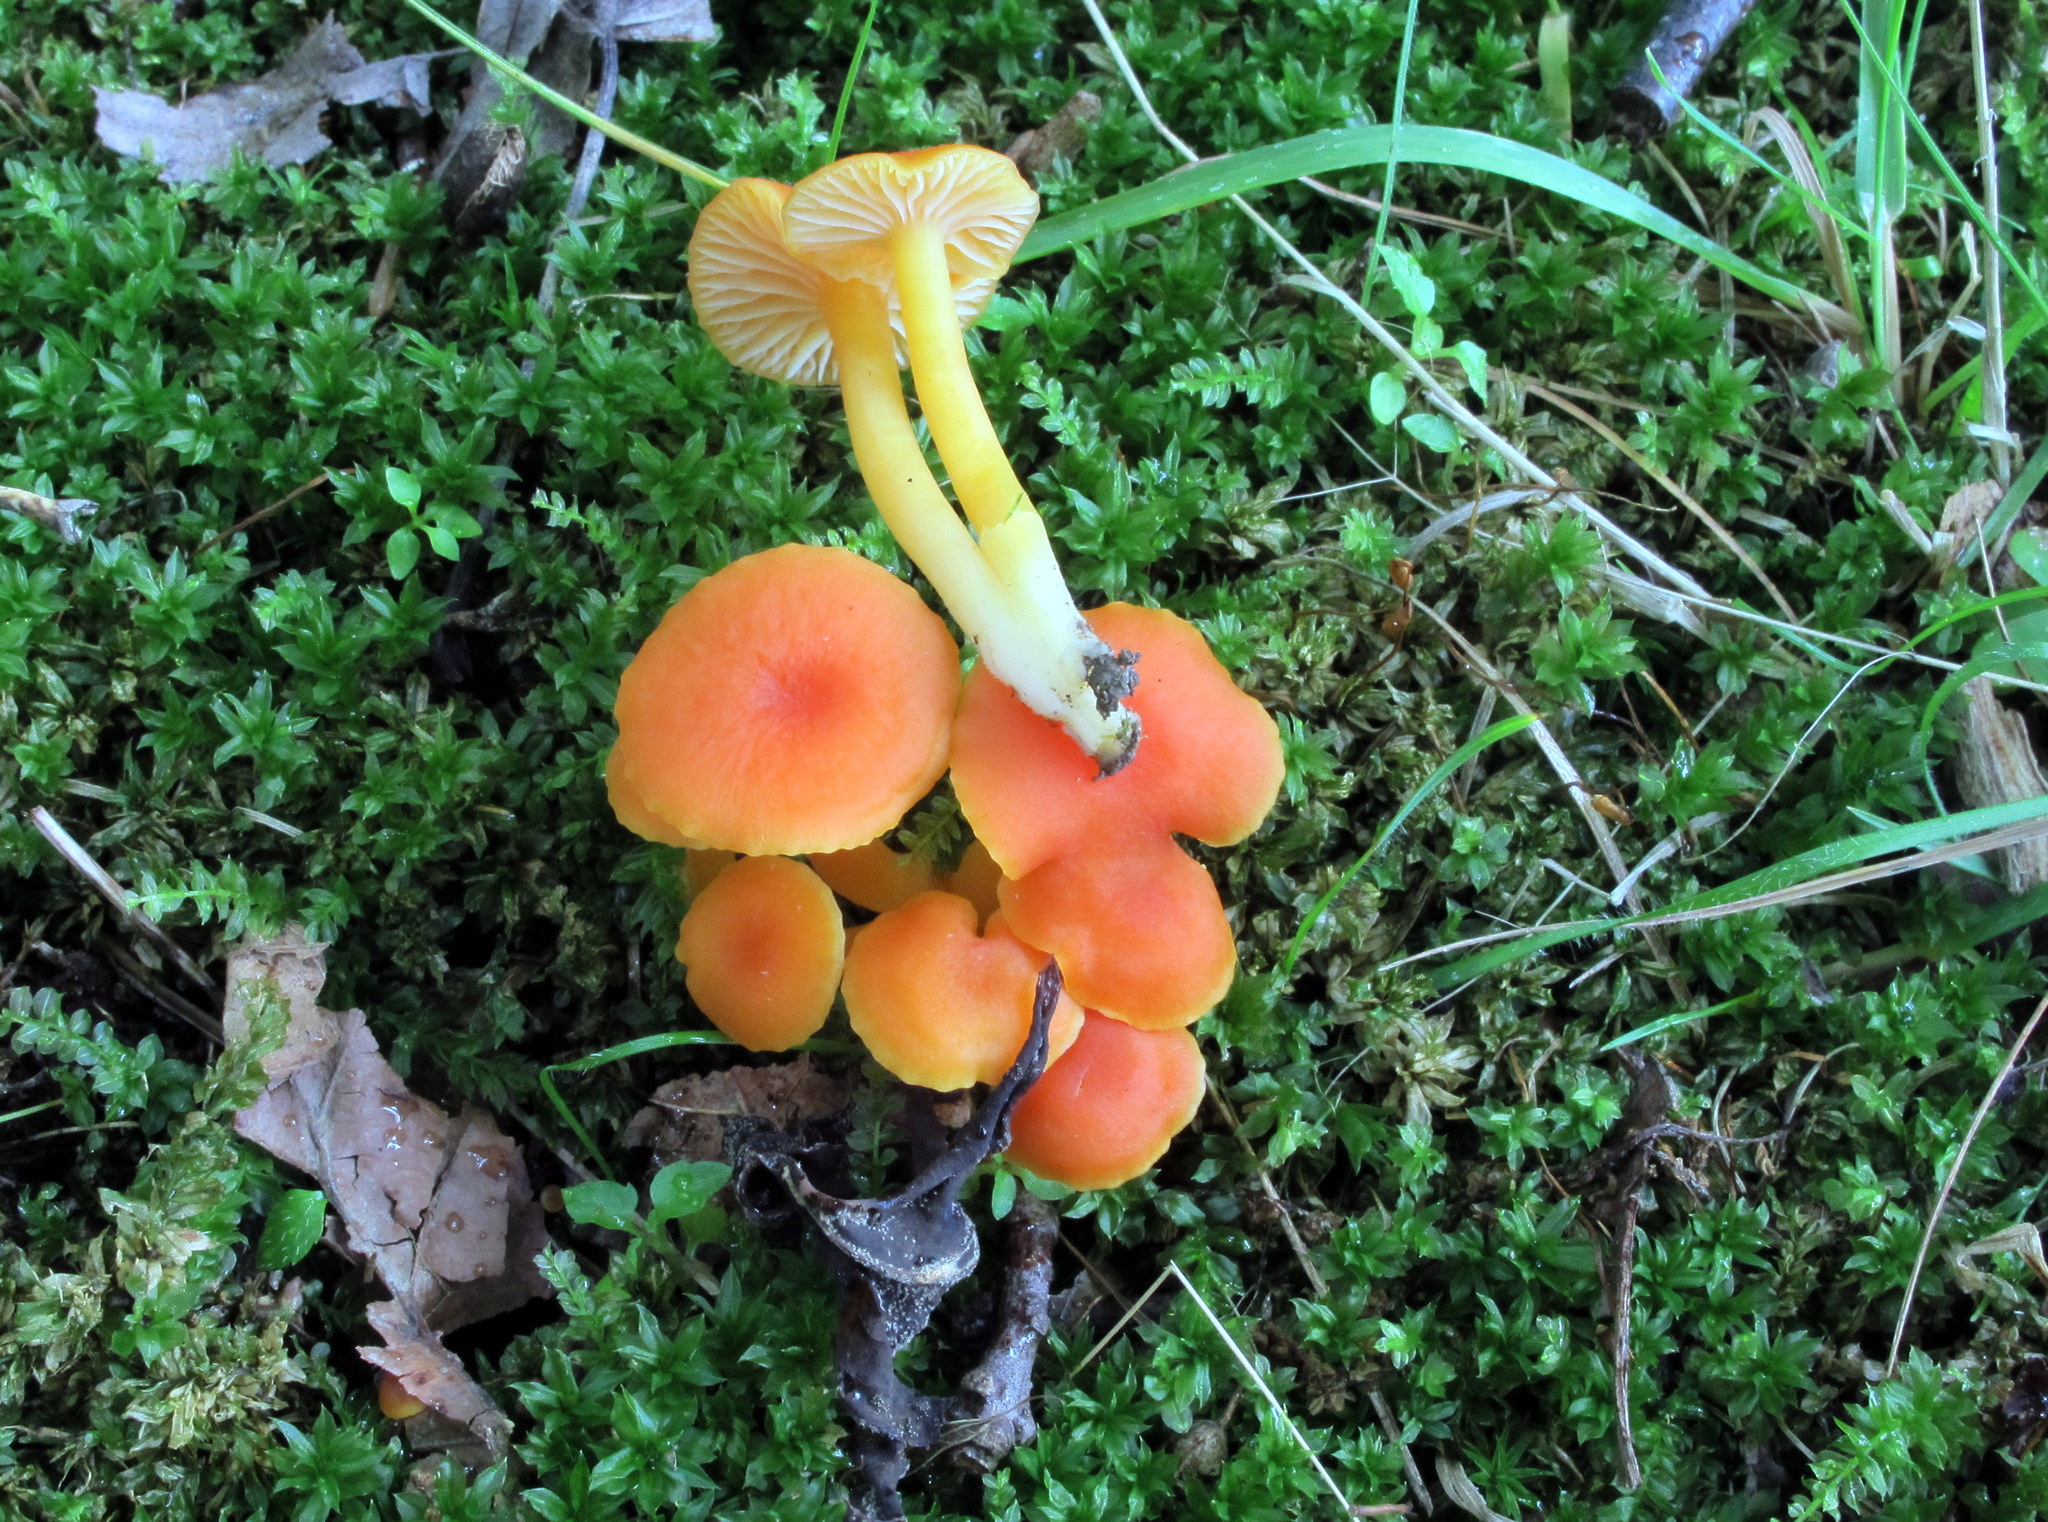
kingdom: Fungi
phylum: Basidiomycota
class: Agaricomycetes
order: Agaricales
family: Hygrophoraceae
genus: Hygrocybe
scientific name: Hygrocybe miniata
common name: Vermilion waxcap
